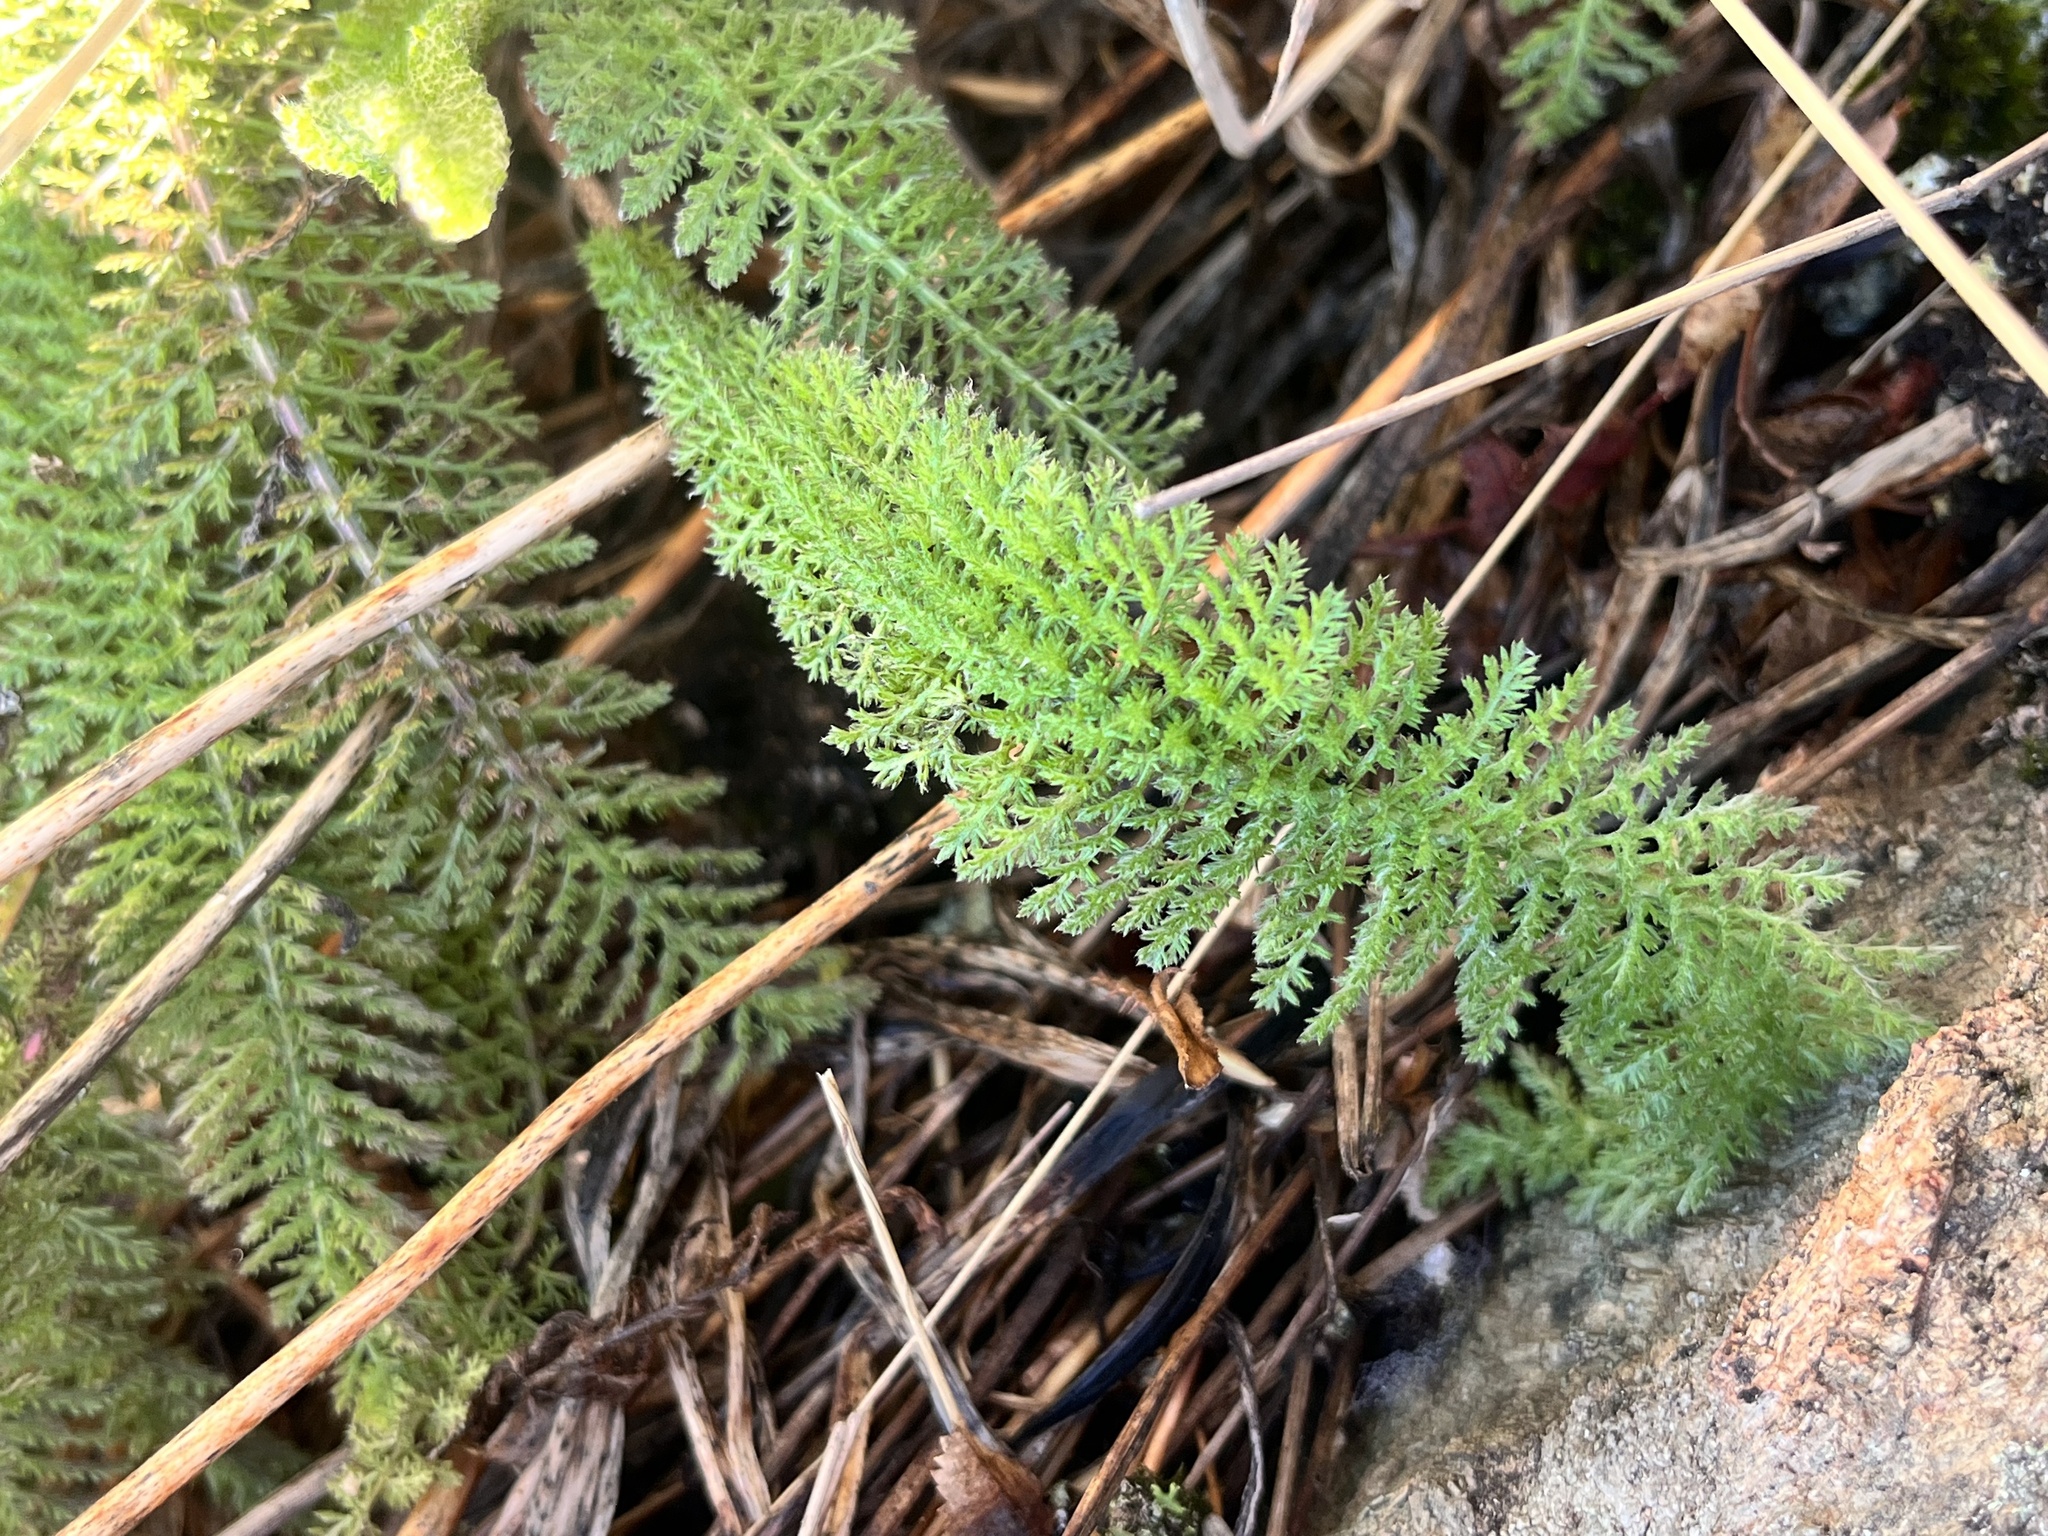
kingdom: Plantae
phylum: Tracheophyta
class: Magnoliopsida
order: Asterales
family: Asteraceae
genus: Achillea
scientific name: Achillea millefolium
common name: Yarrow
